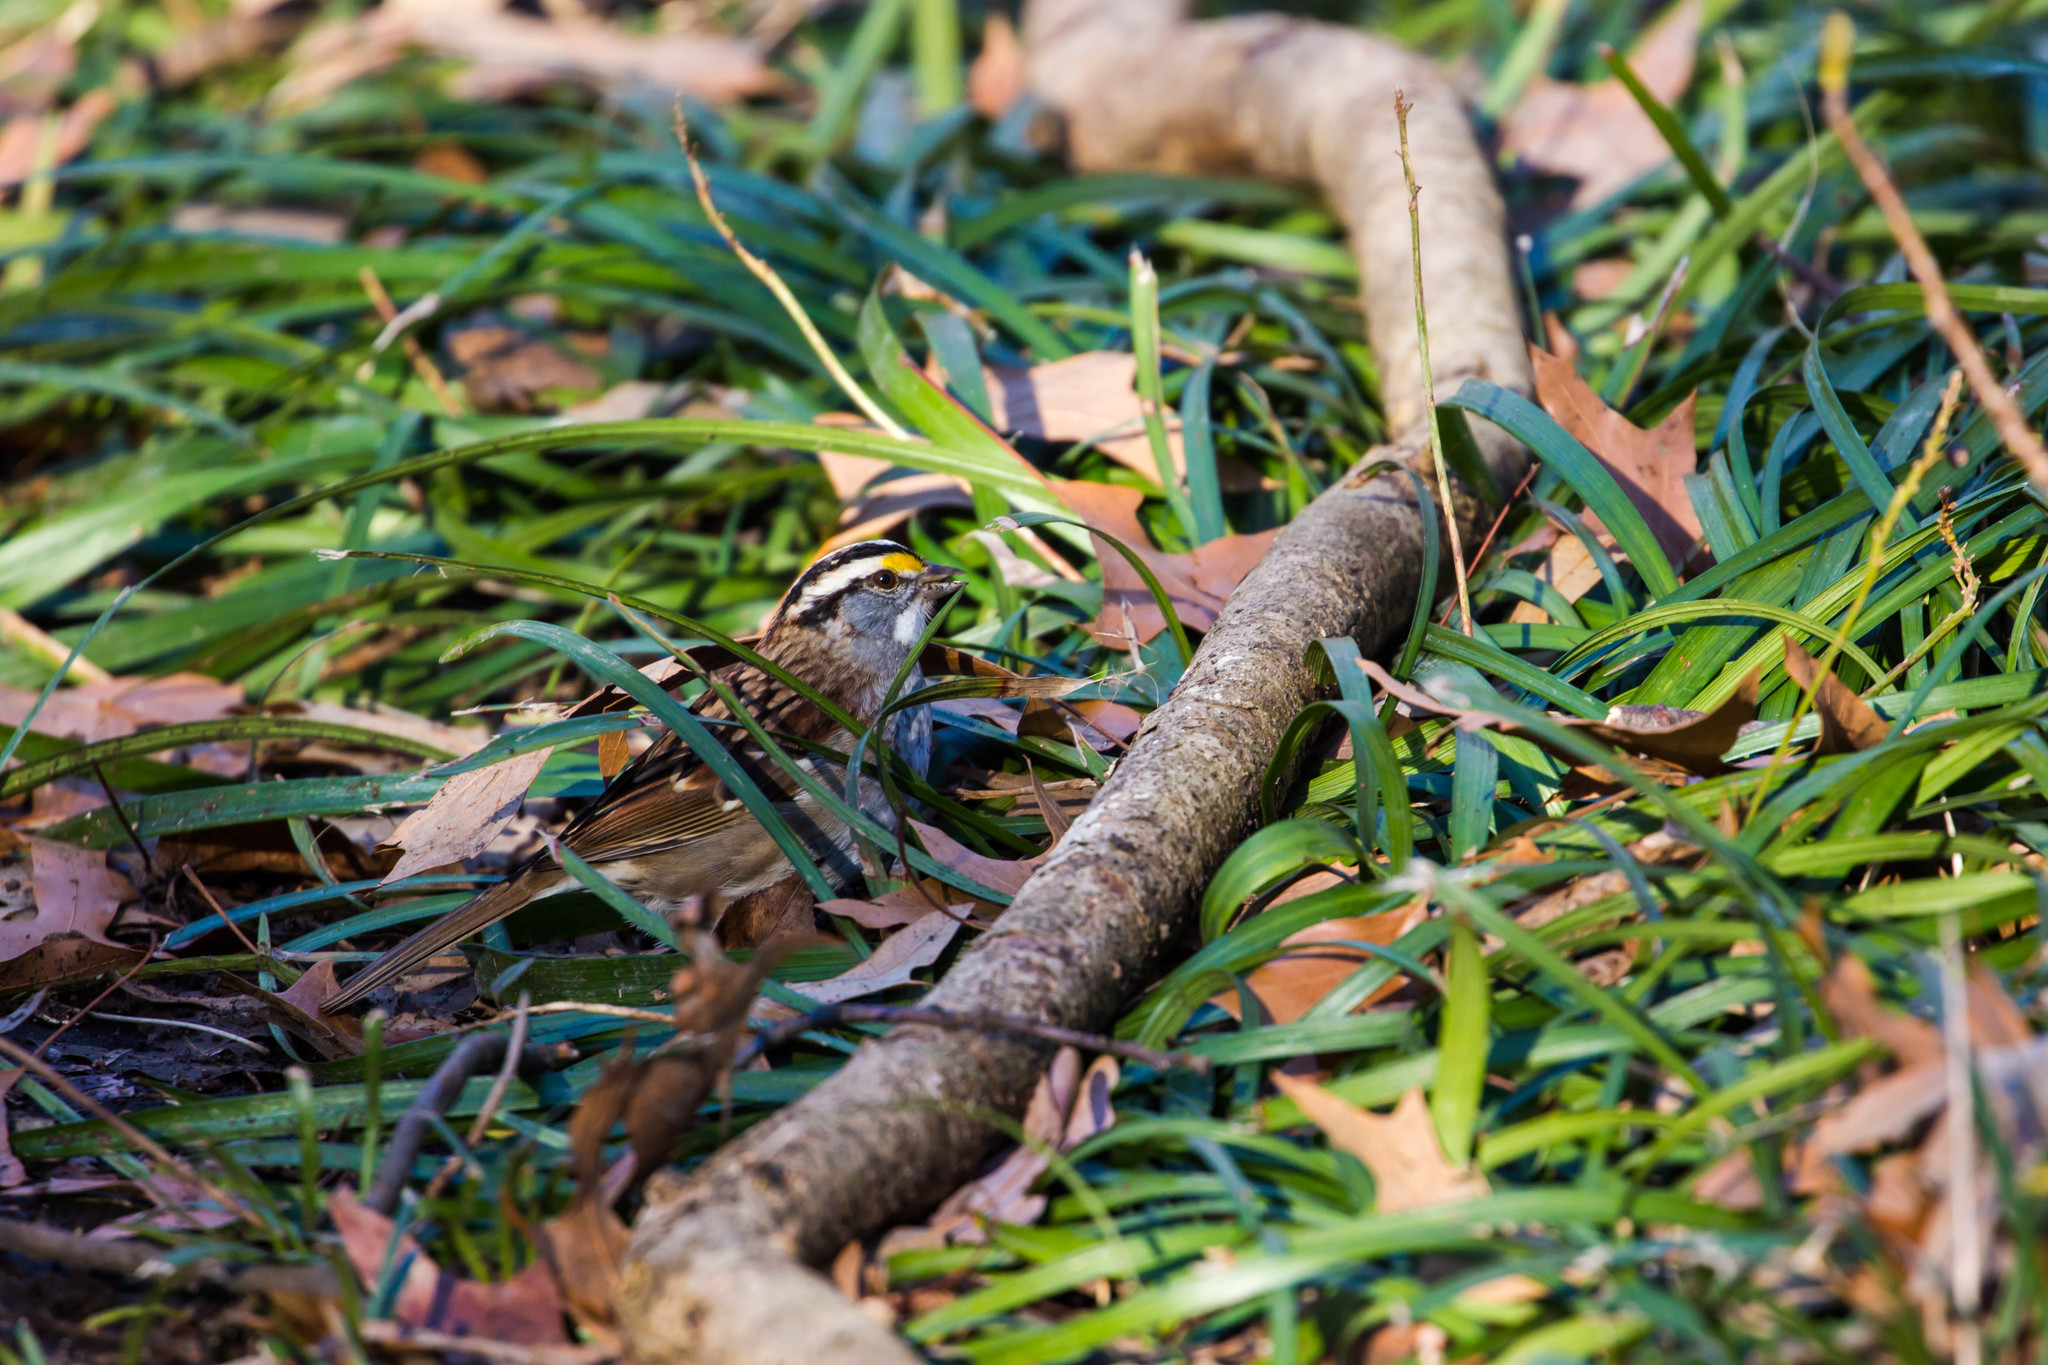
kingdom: Animalia
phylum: Chordata
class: Aves
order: Passeriformes
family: Passerellidae
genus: Zonotrichia
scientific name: Zonotrichia albicollis
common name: White-throated sparrow
